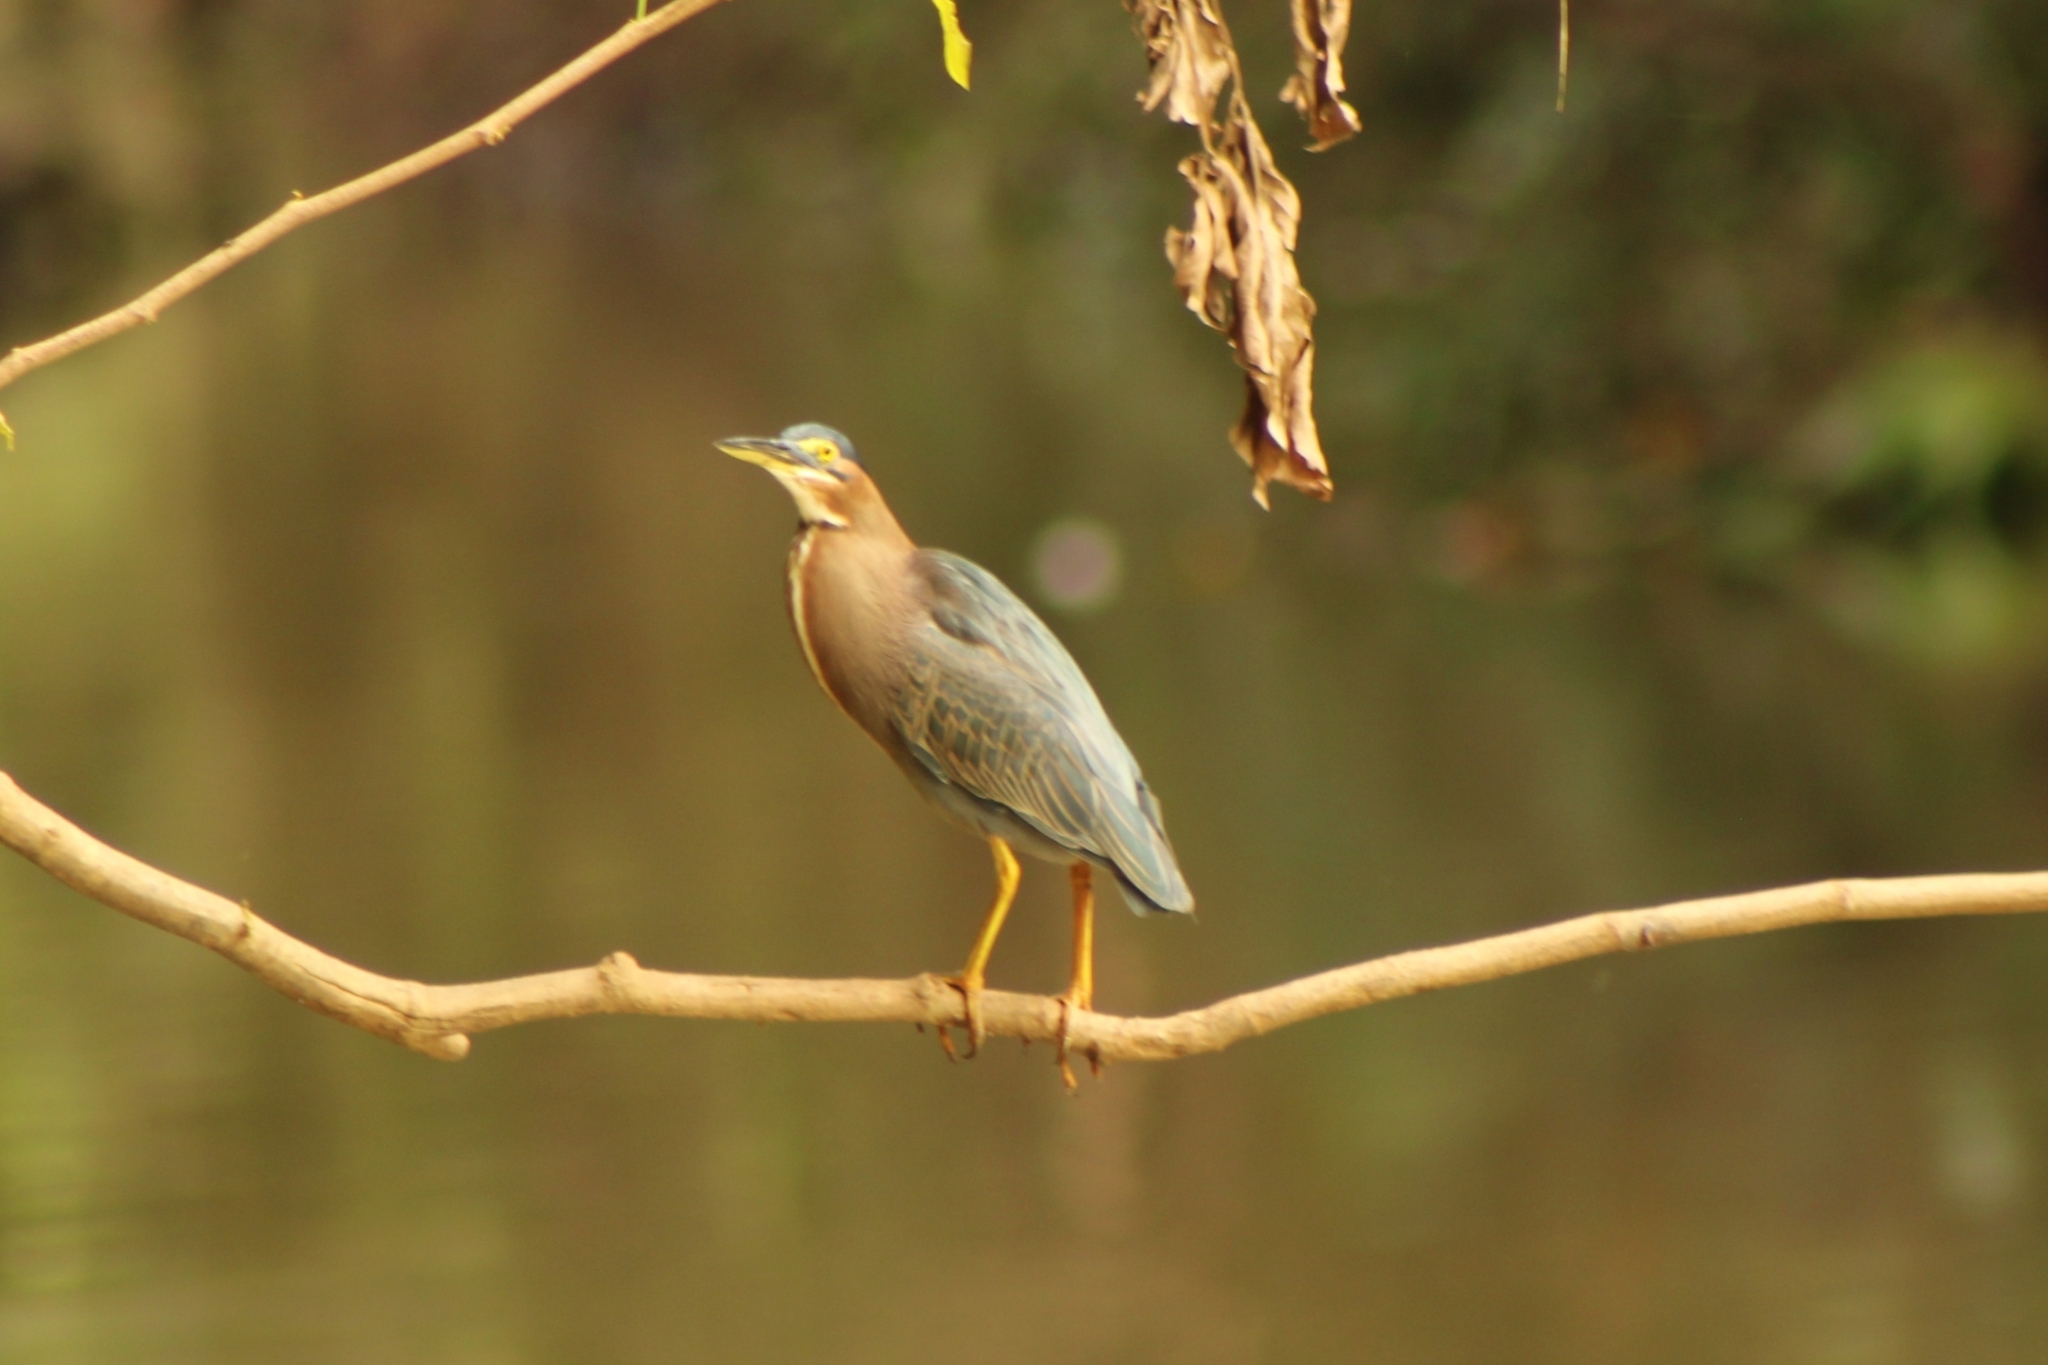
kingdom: Animalia
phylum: Chordata
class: Aves
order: Pelecaniformes
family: Ardeidae
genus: Butorides
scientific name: Butorides virescens
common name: Green heron
